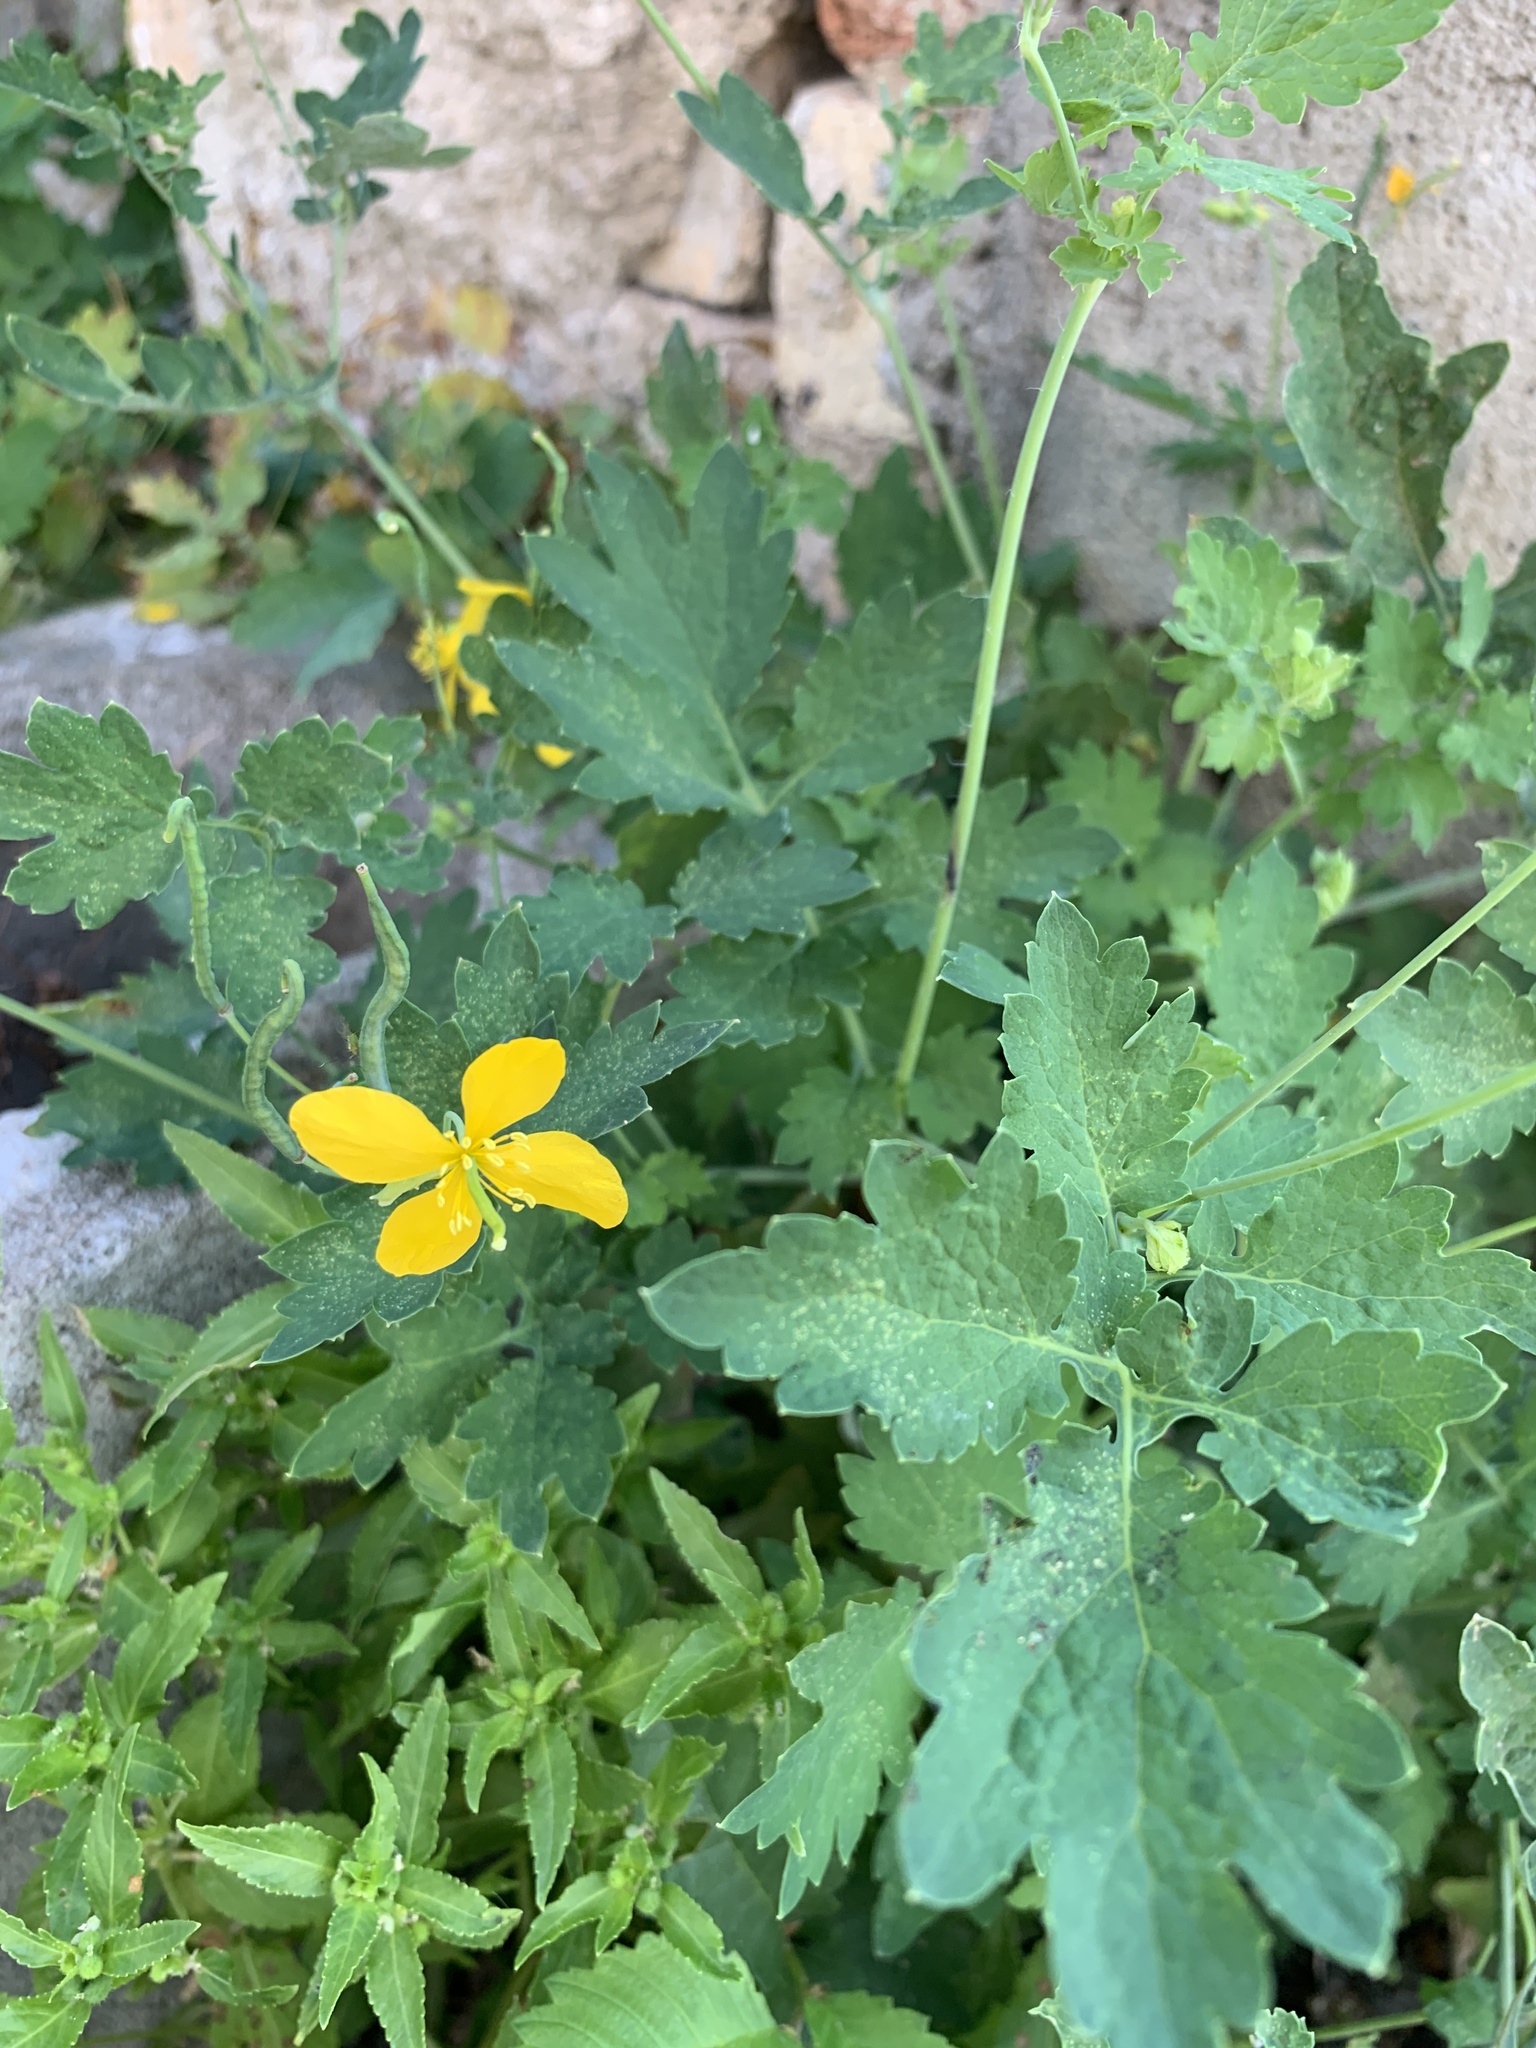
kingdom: Plantae
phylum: Tracheophyta
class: Magnoliopsida
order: Ranunculales
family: Papaveraceae
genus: Chelidonium
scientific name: Chelidonium majus
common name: Greater celandine
